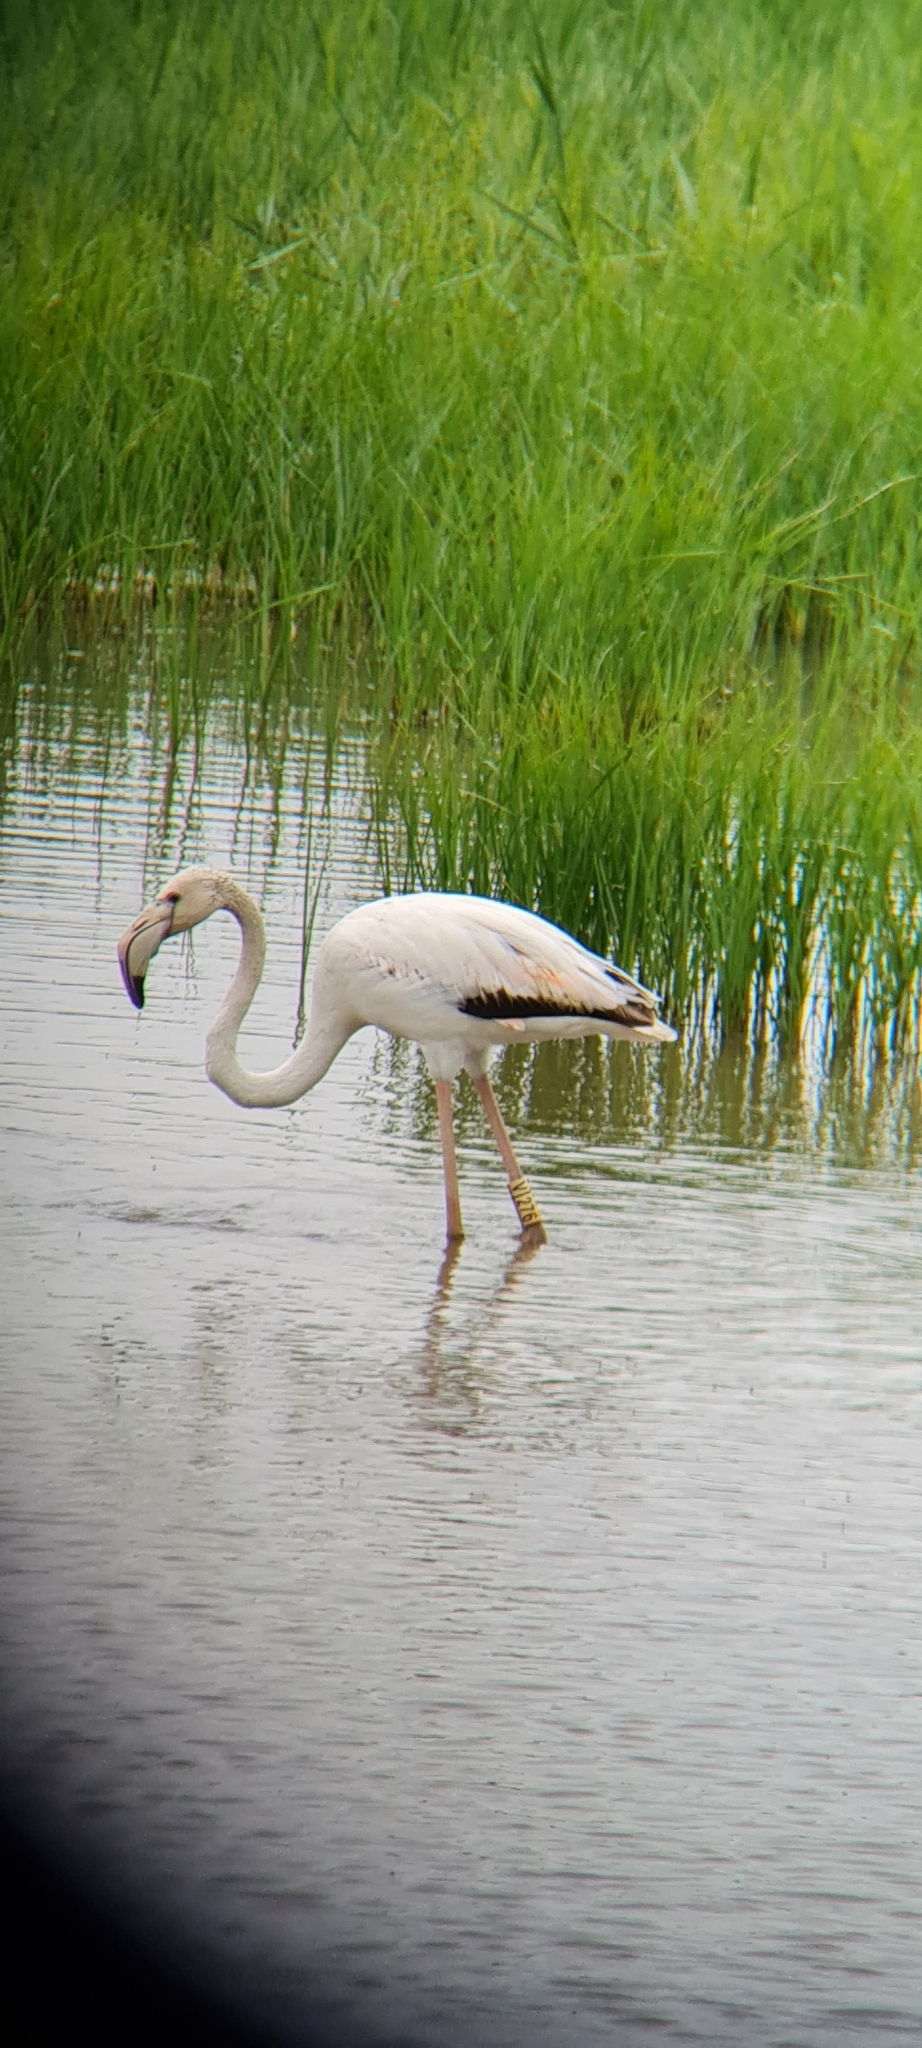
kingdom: Animalia
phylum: Chordata
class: Aves
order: Phoenicopteriformes
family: Phoenicopteridae
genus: Phoenicopterus
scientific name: Phoenicopterus roseus
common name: Greater flamingo
